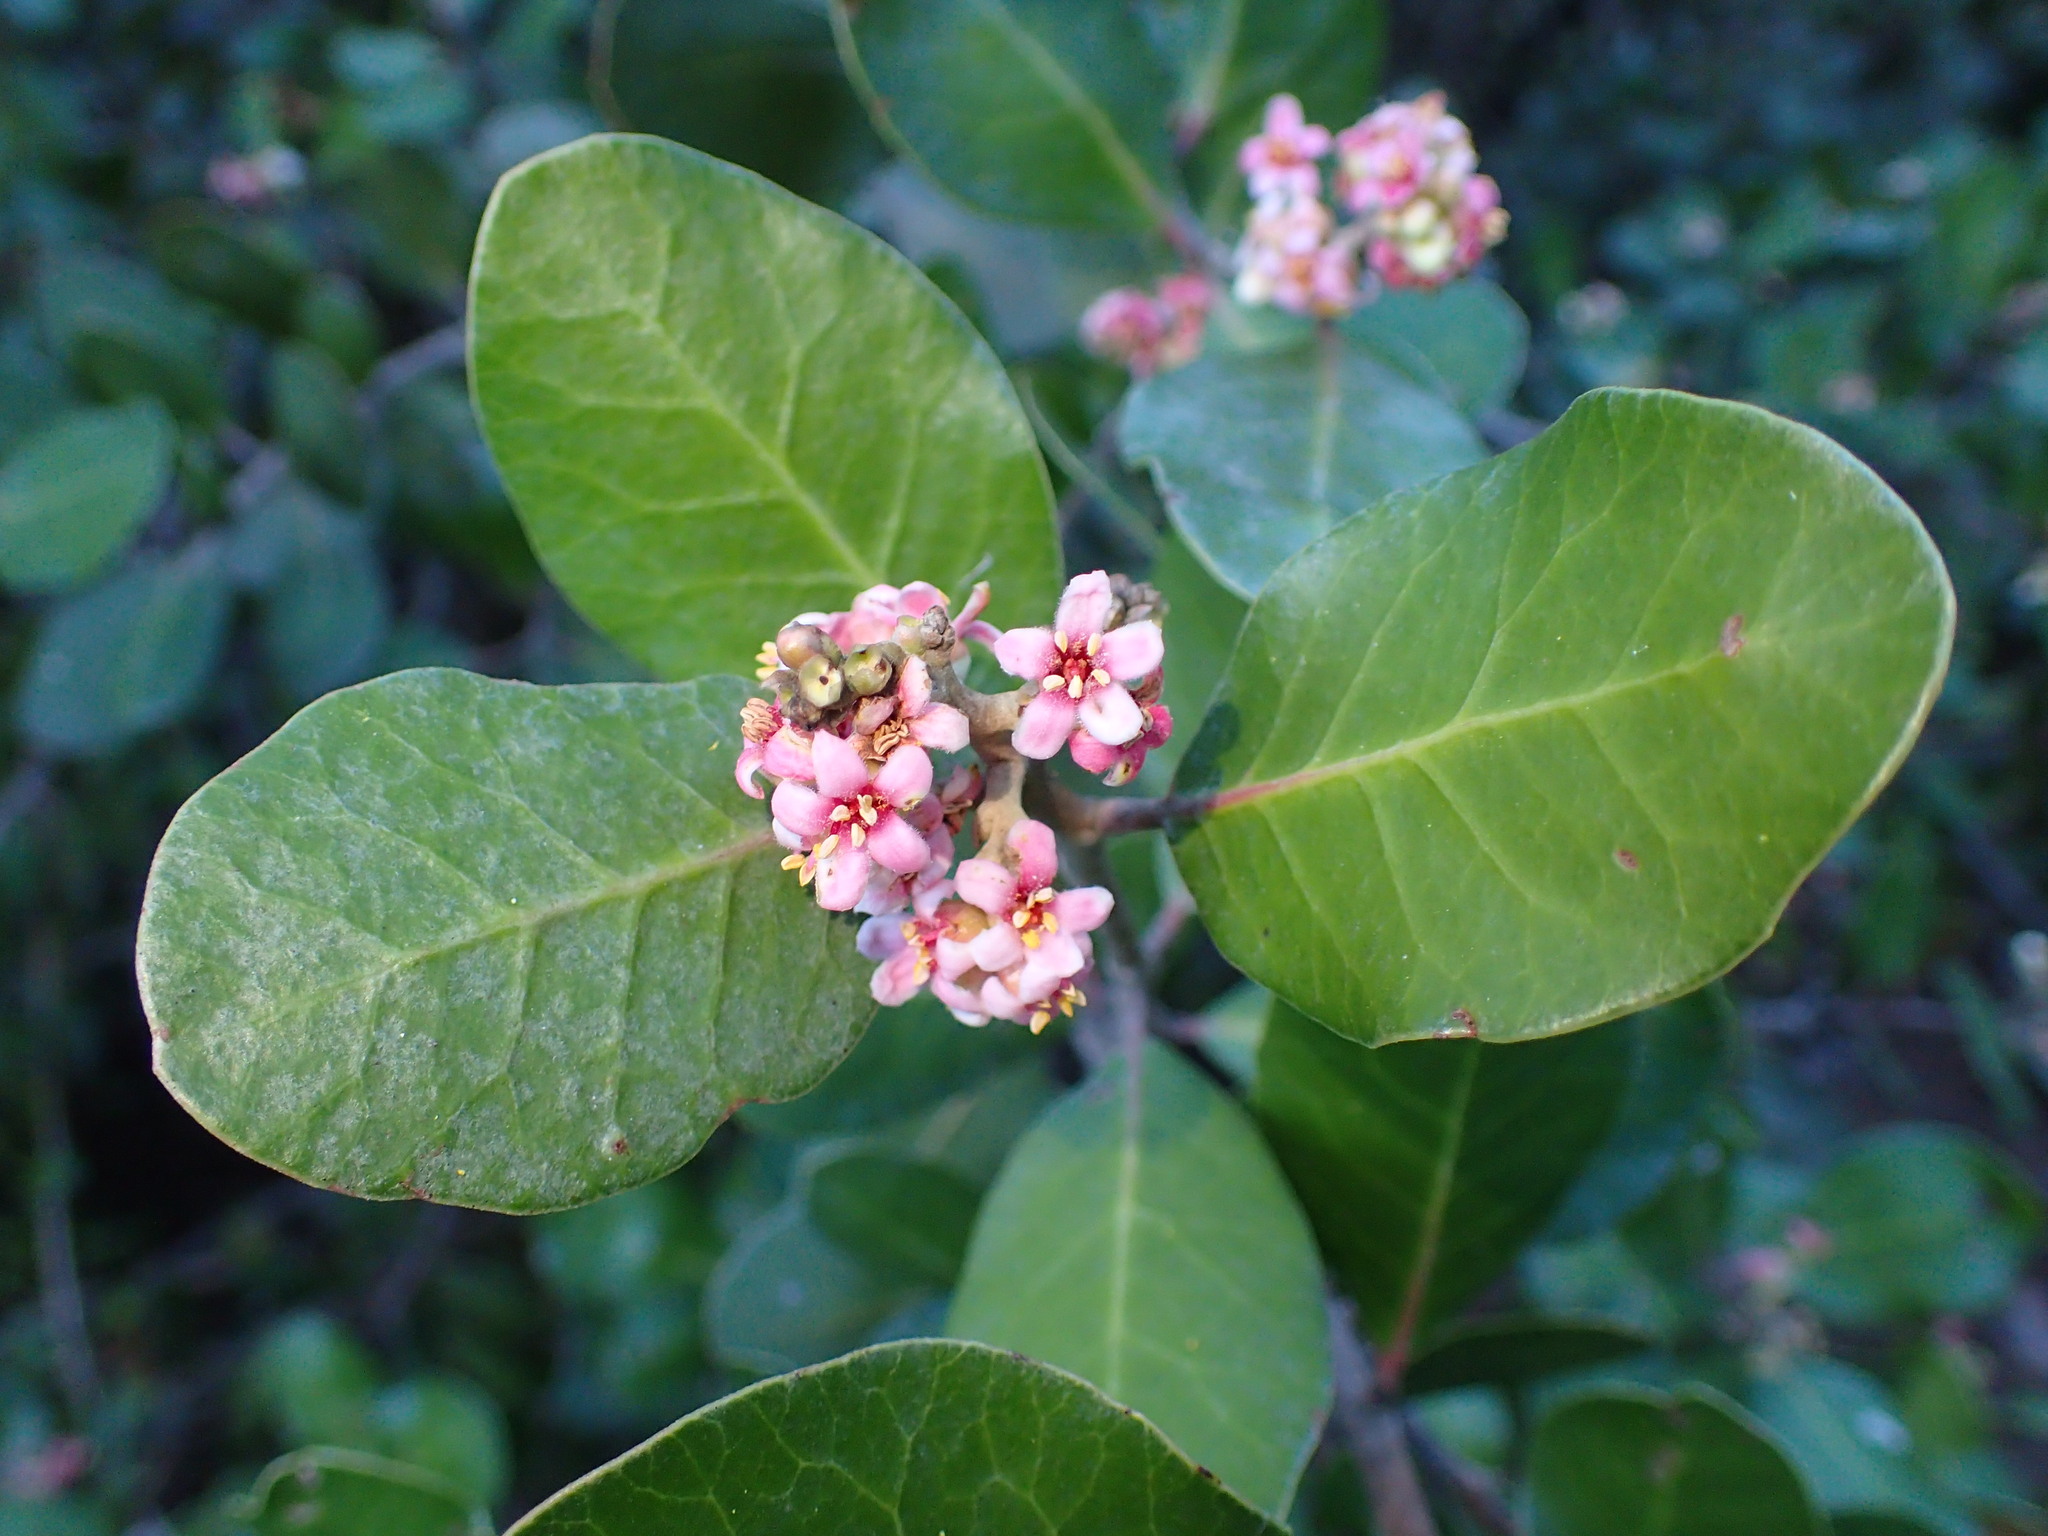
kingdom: Plantae
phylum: Tracheophyta
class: Magnoliopsida
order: Sapindales
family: Anacardiaceae
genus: Rhus
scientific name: Rhus integrifolia
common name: Lemonade sumac
